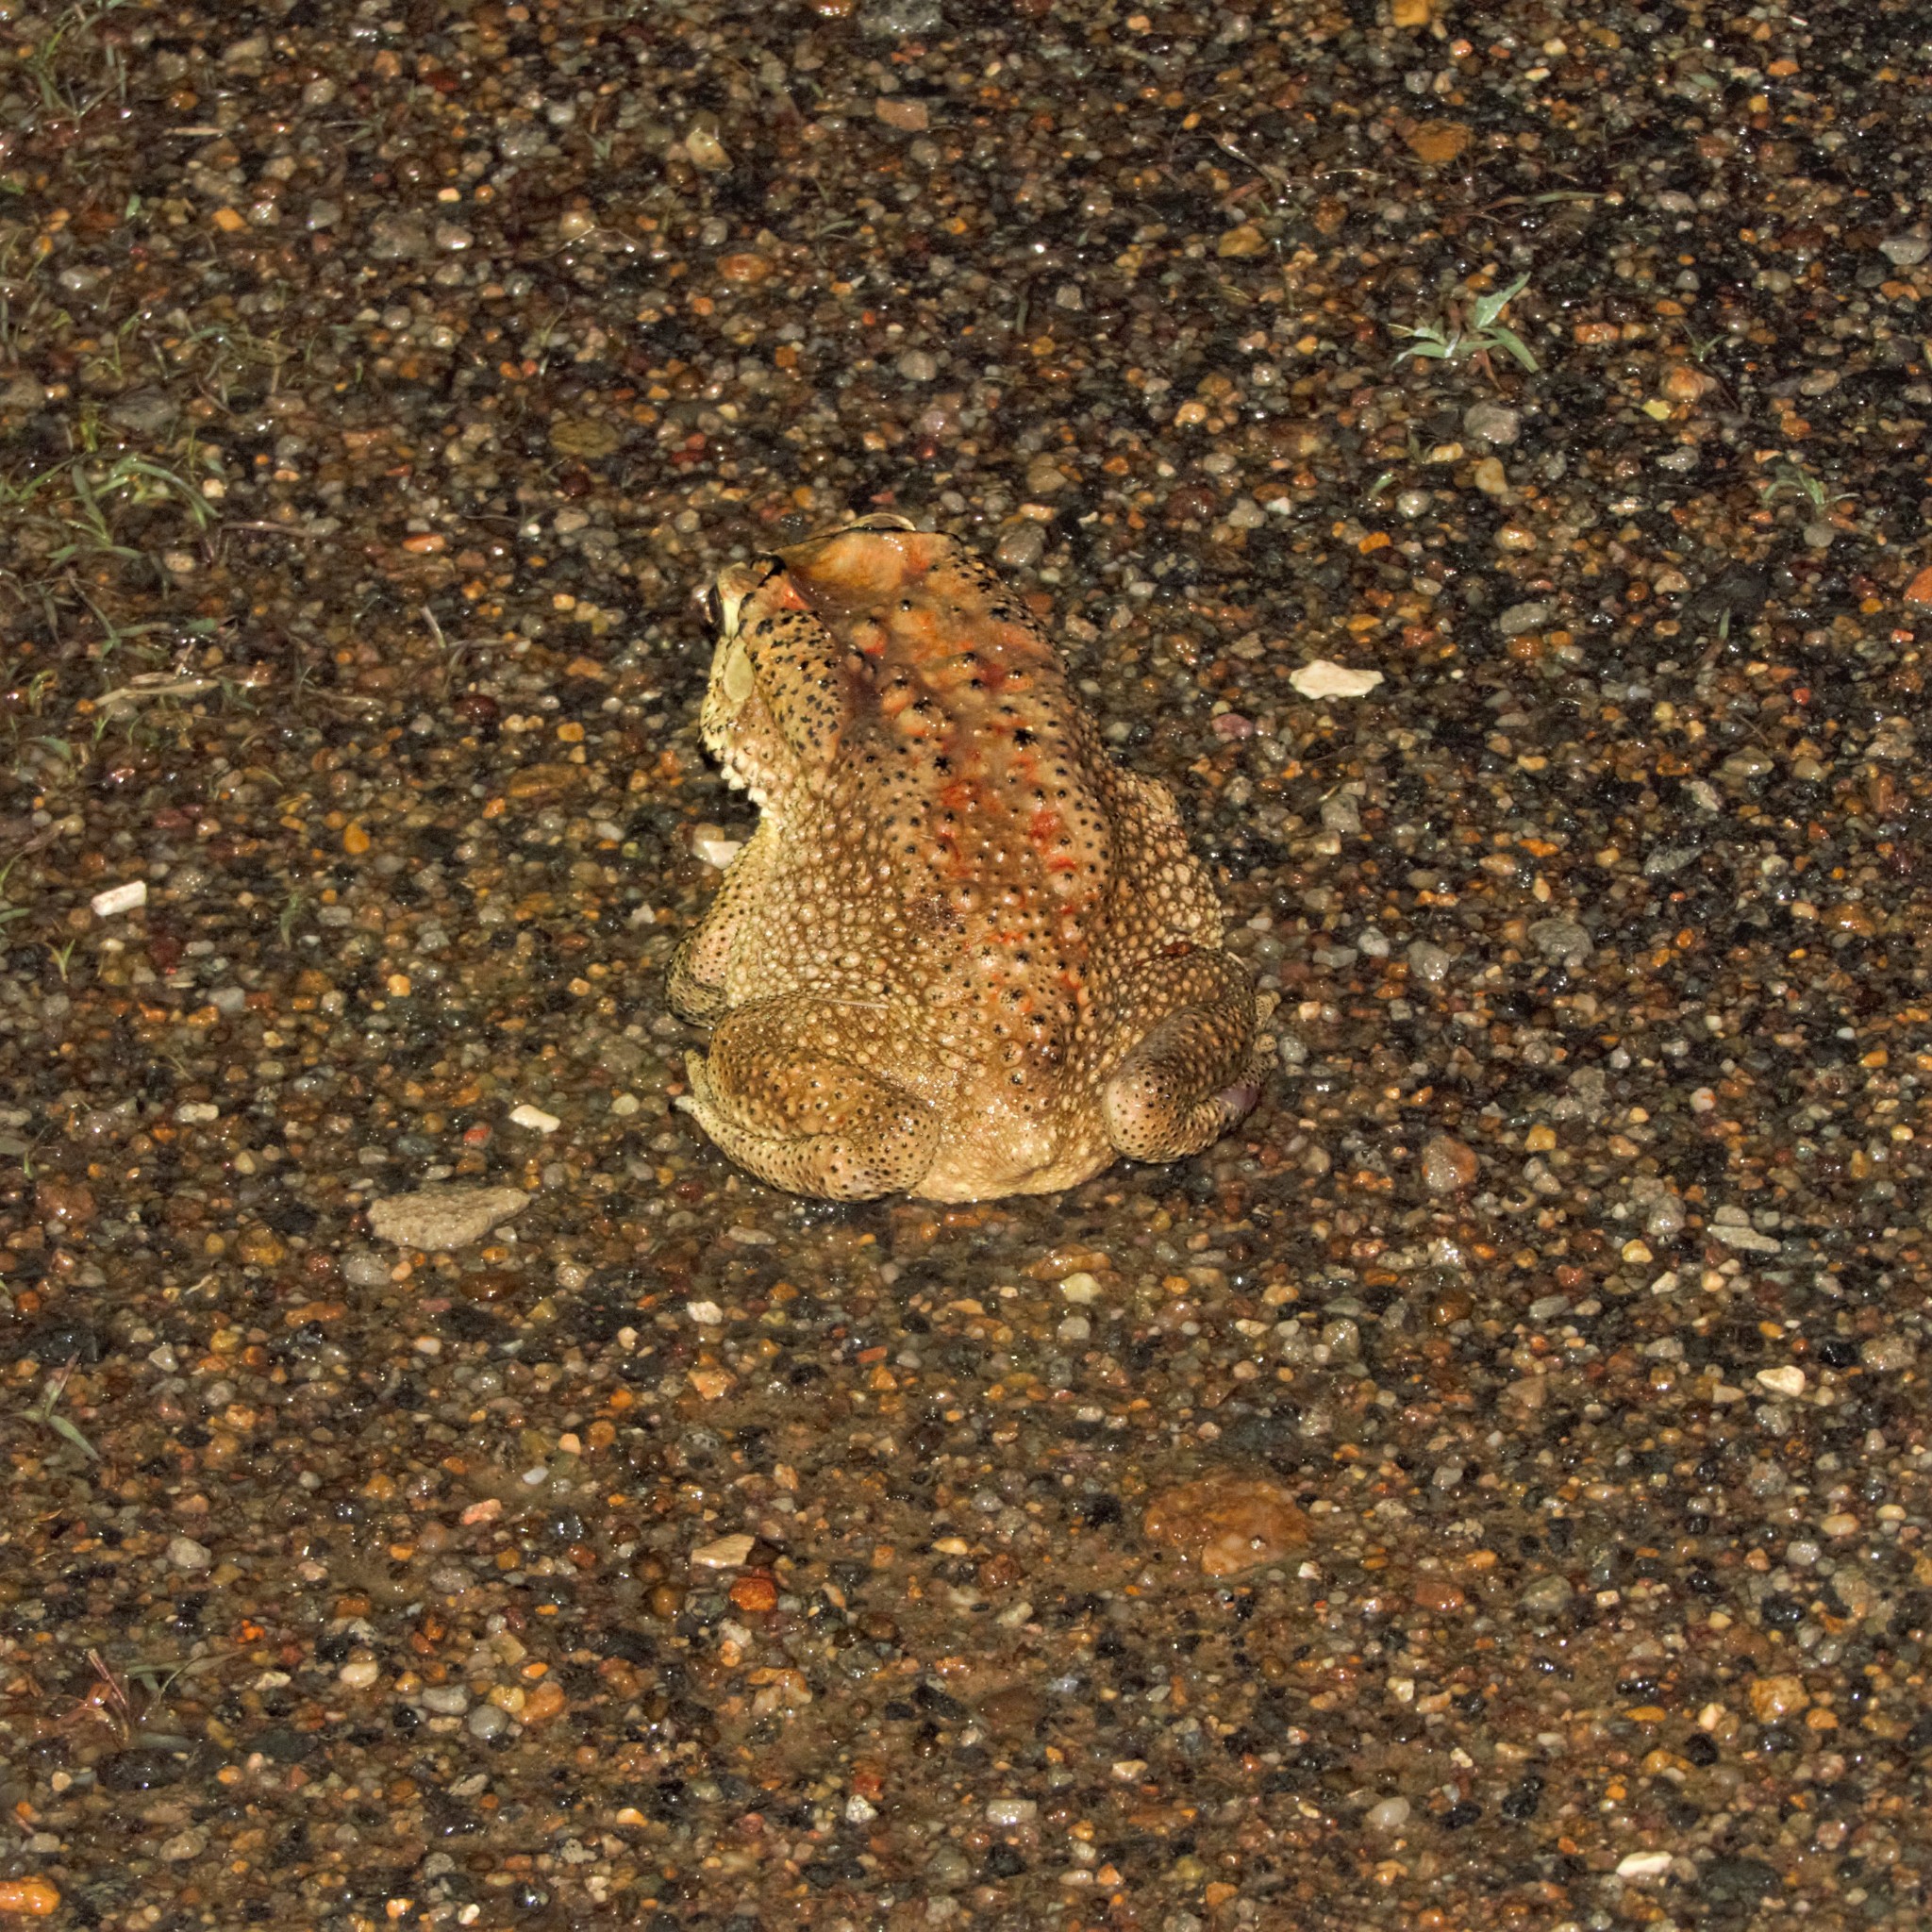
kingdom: Animalia
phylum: Chordata
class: Amphibia
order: Anura
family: Bufonidae
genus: Duttaphrynus
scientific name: Duttaphrynus melanostictus
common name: Common sunda toad
